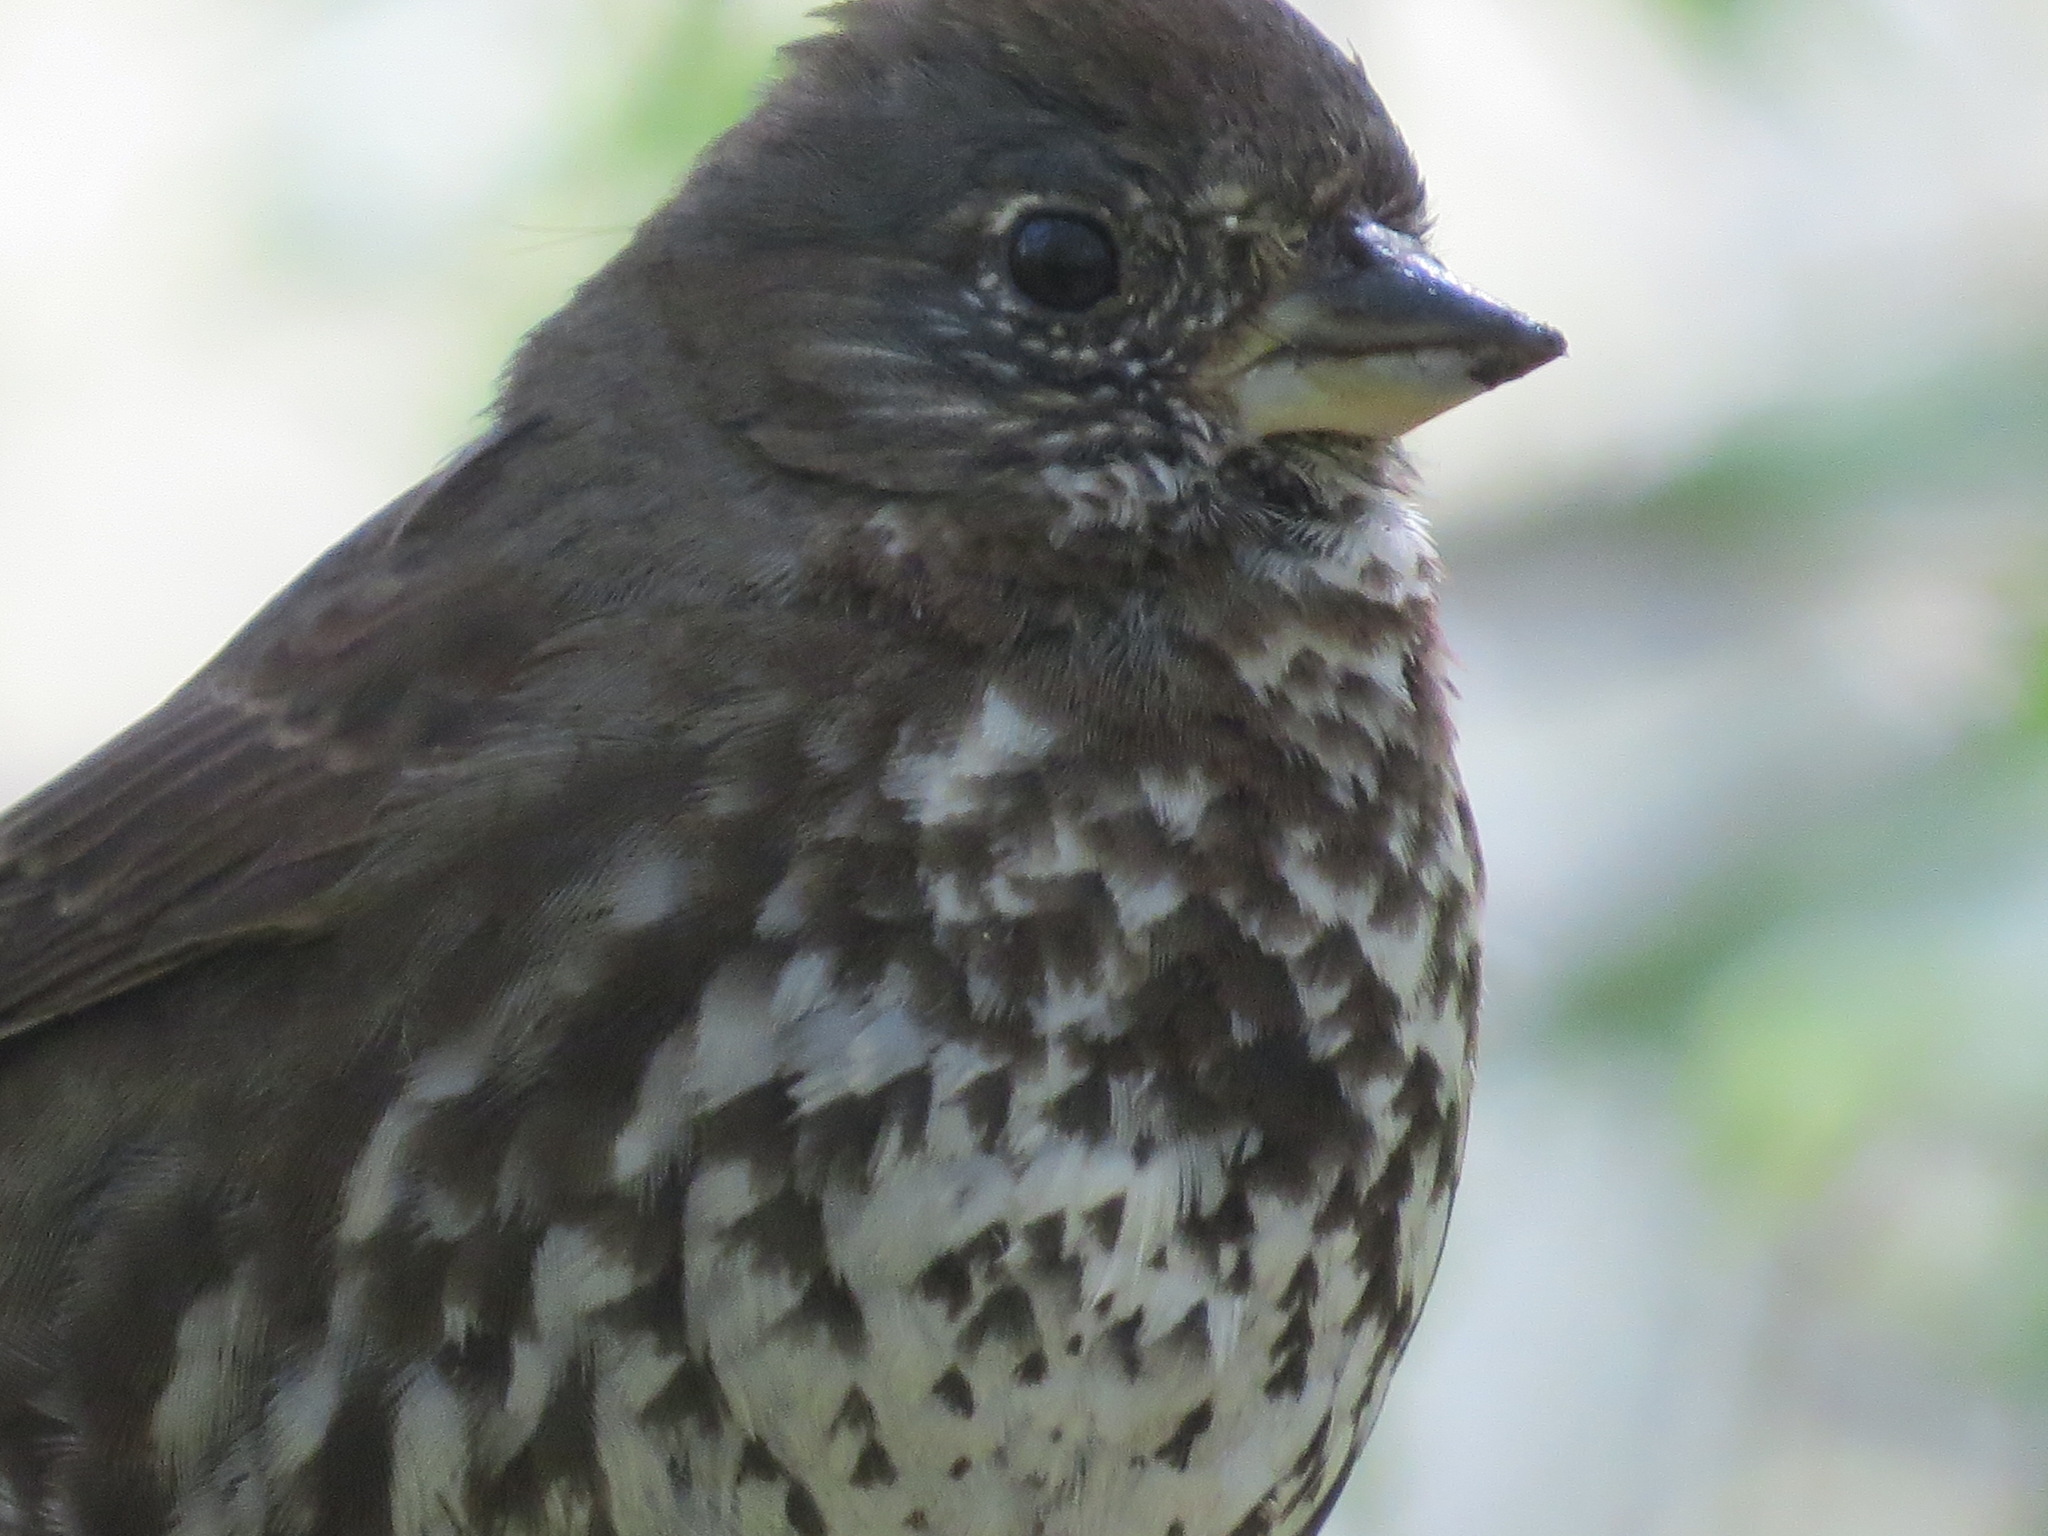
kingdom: Animalia
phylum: Chordata
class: Aves
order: Passeriformes
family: Passerellidae
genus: Passerella
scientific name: Passerella iliaca
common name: Fox sparrow
